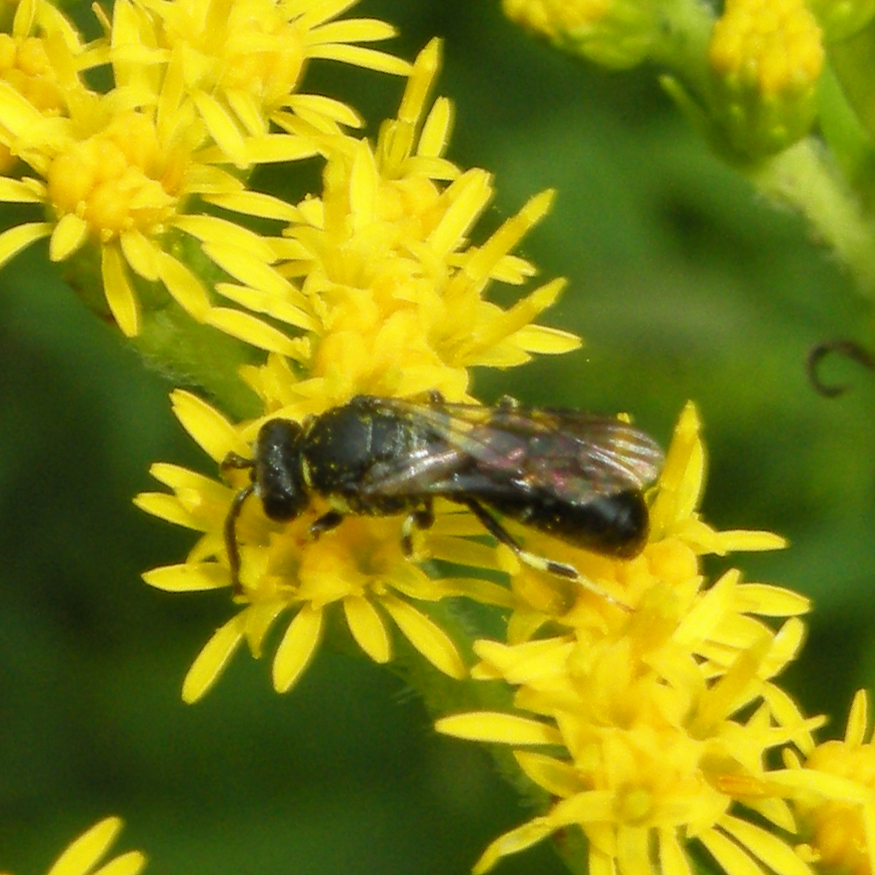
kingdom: Animalia
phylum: Arthropoda
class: Insecta
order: Hymenoptera
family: Colletidae
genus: Hylaeus
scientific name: Hylaeus modestus
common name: Yellow-faced bee
